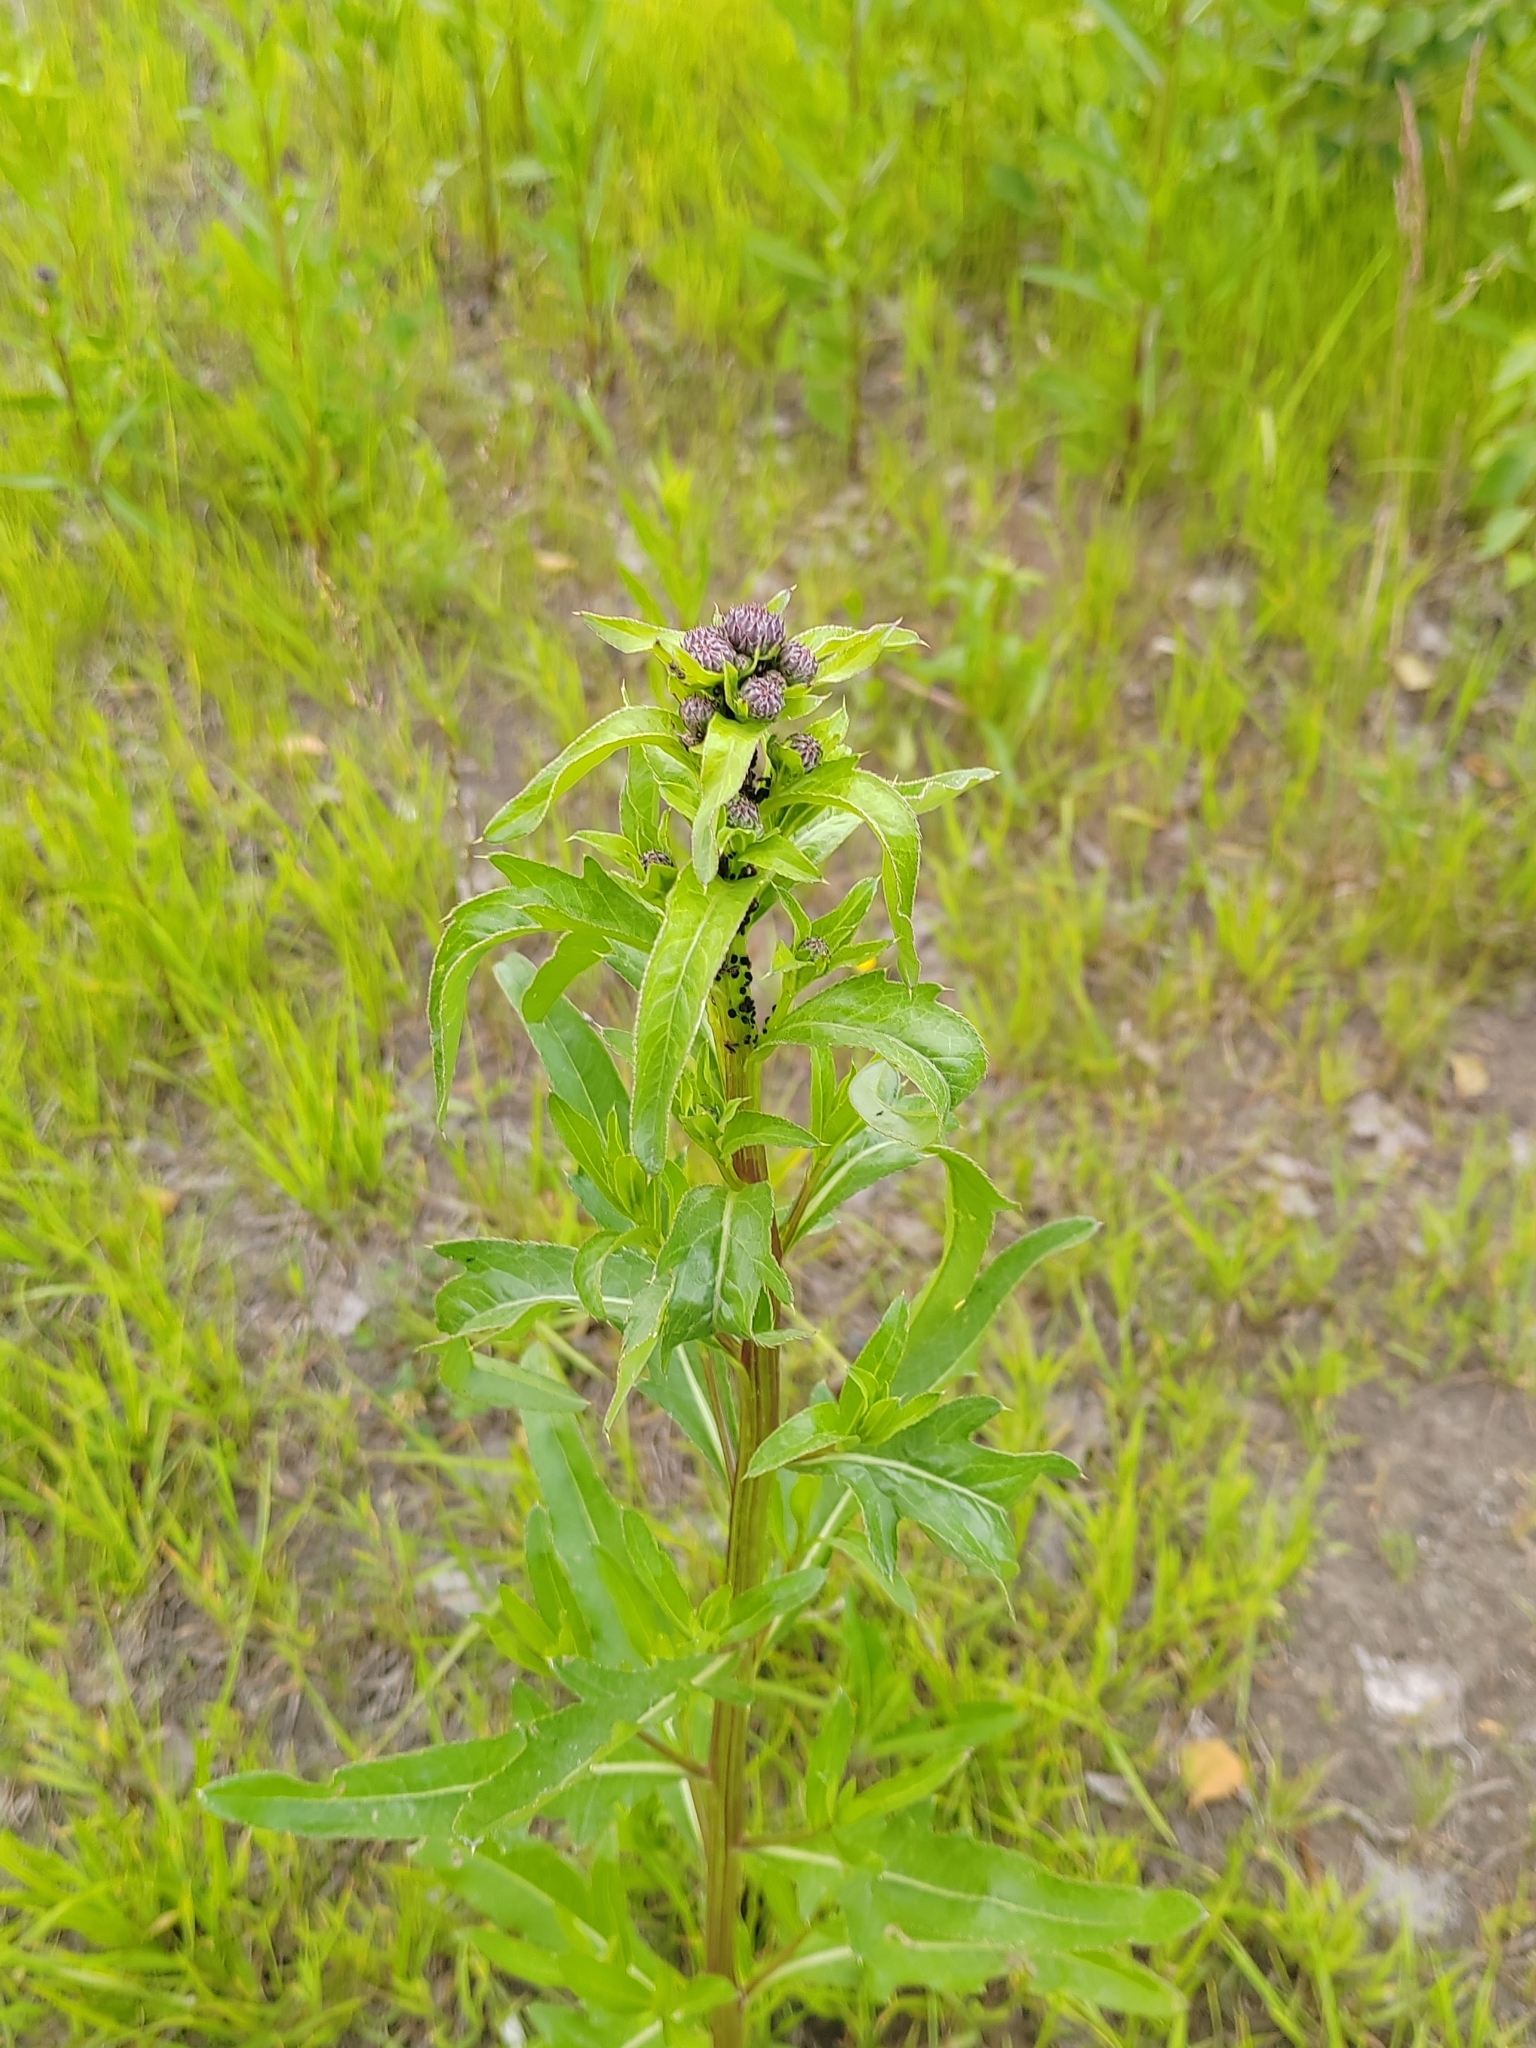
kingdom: Plantae
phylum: Tracheophyta
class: Magnoliopsida
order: Asterales
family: Asteraceae
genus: Cirsium
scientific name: Cirsium arvense
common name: Creeping thistle
